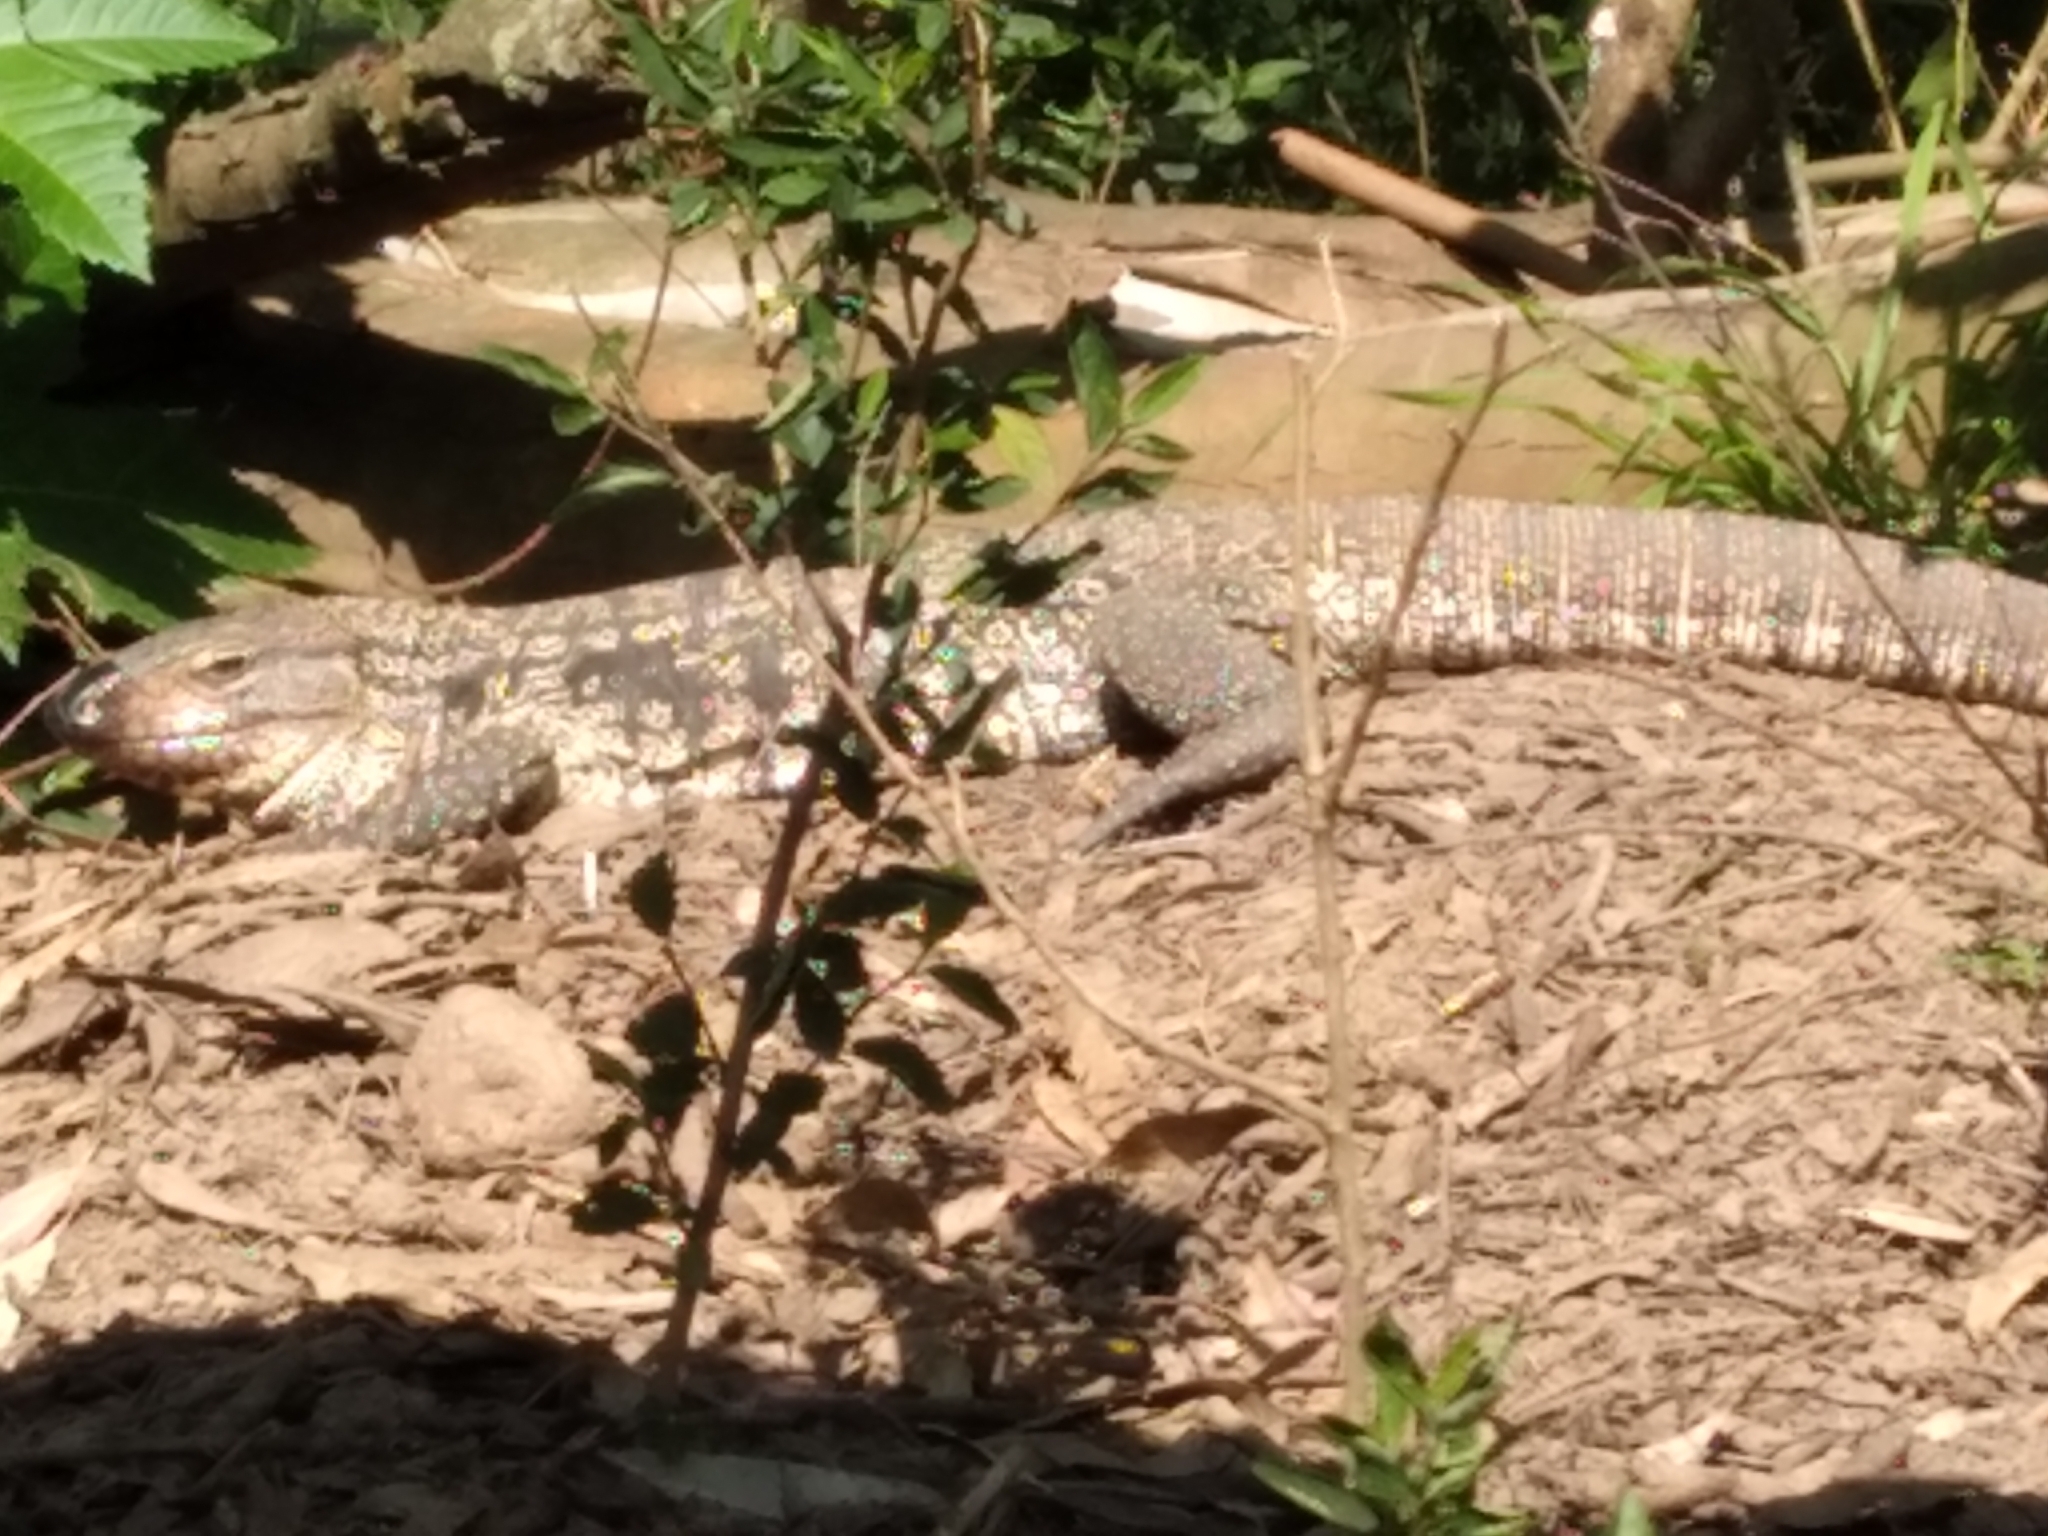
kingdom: Animalia
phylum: Chordata
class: Squamata
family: Teiidae
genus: Salvator
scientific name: Salvator merianae
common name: Argentine black and white tegu
